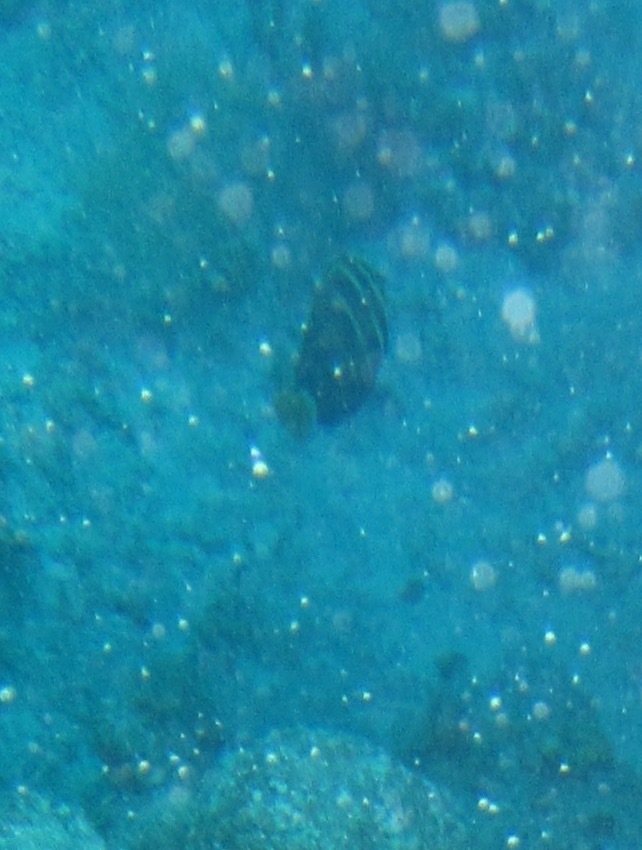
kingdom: Animalia
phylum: Chordata
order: Perciformes
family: Acanthuridae
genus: Zebrasoma
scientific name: Zebrasoma veliferum
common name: Sailfin surgeonfish
